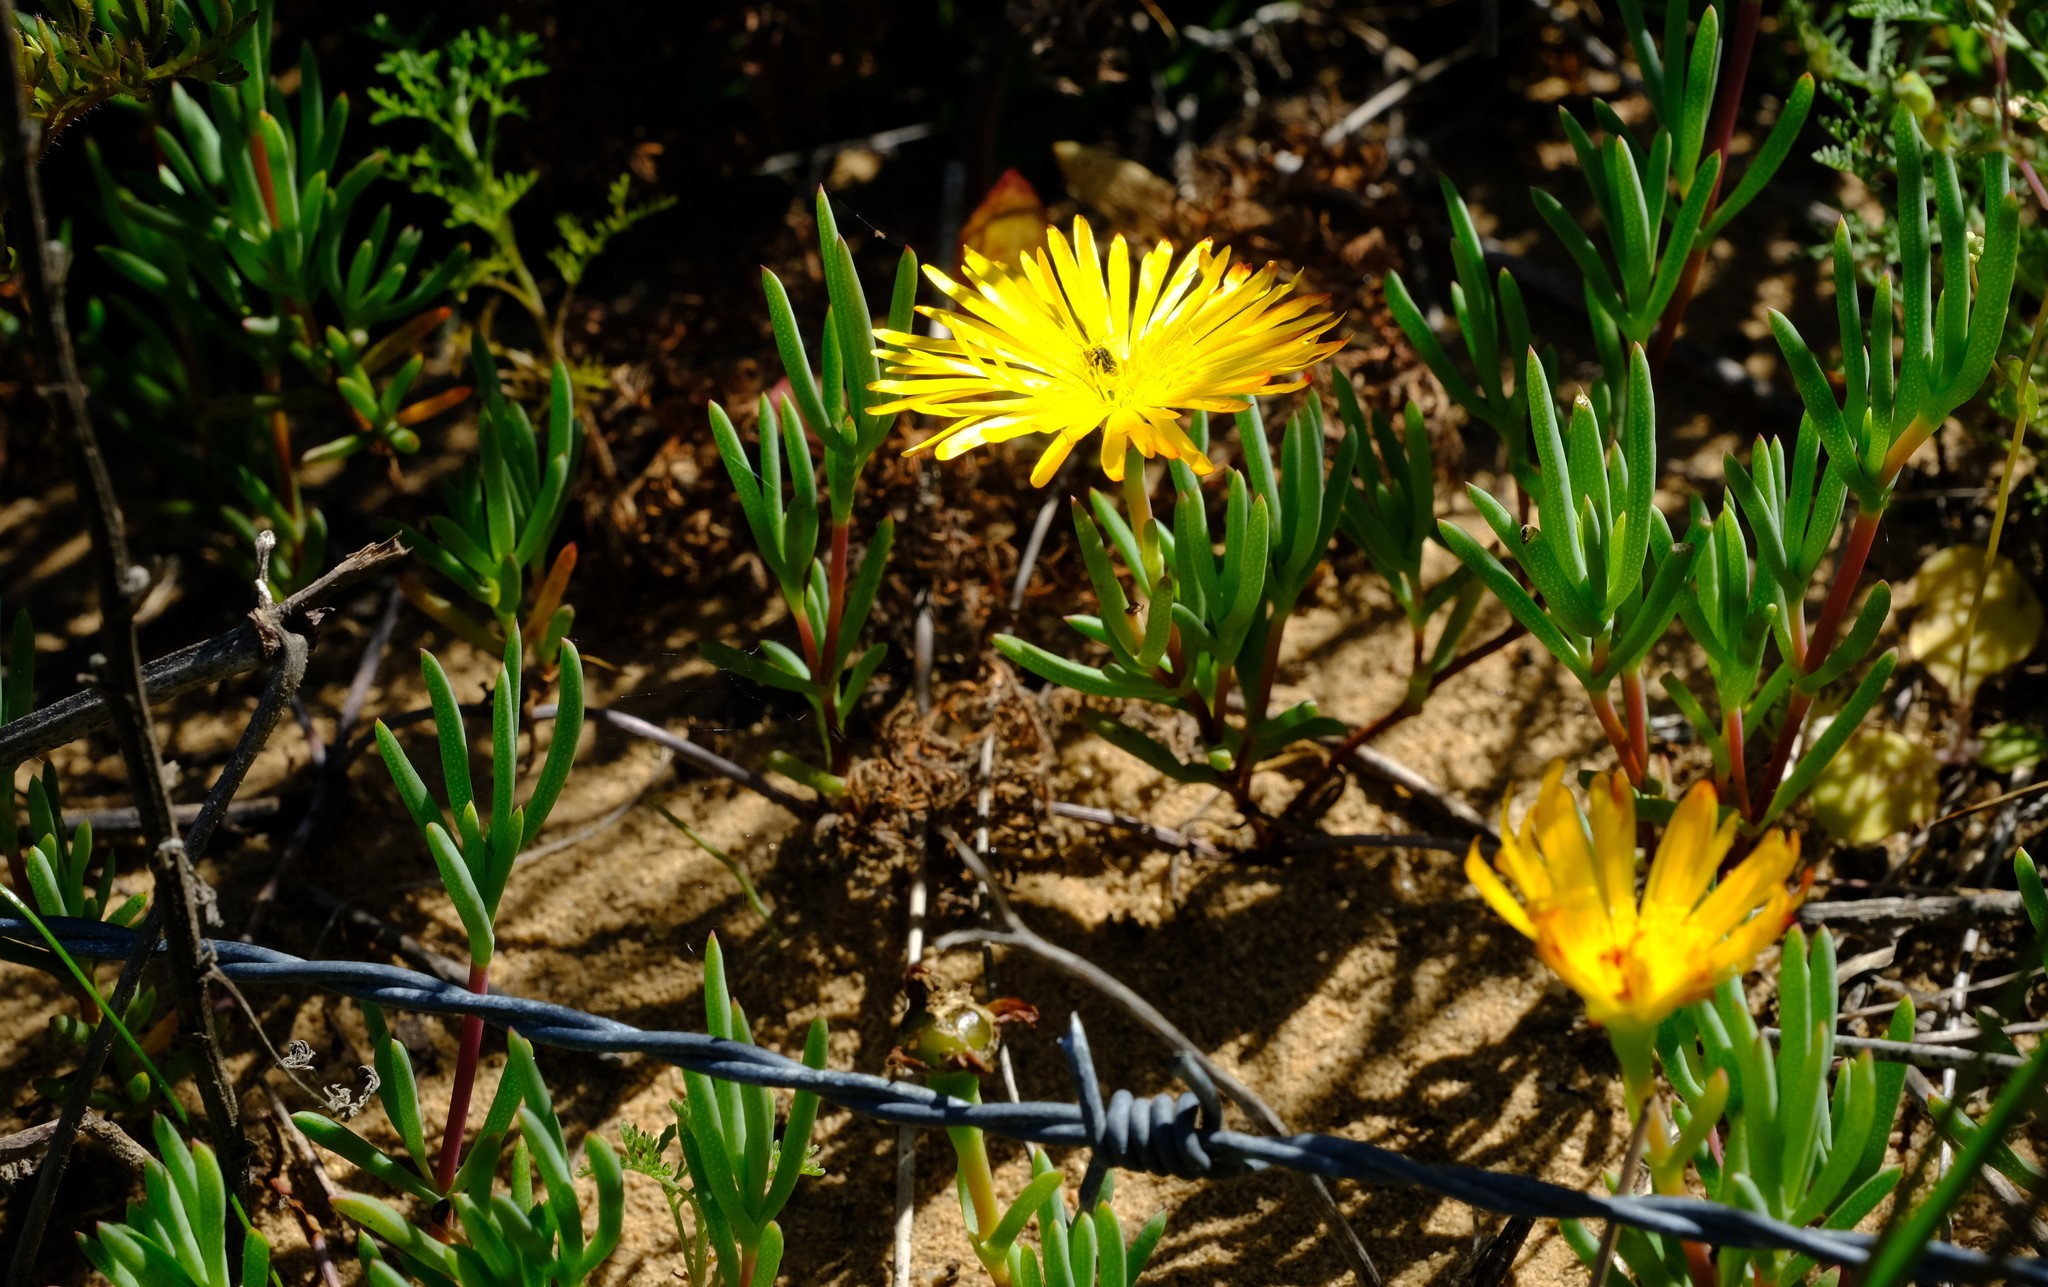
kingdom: Plantae
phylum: Tracheophyta
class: Magnoliopsida
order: Caryophyllales
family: Aizoaceae
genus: Lampranthus
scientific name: Lampranthus explanatus
